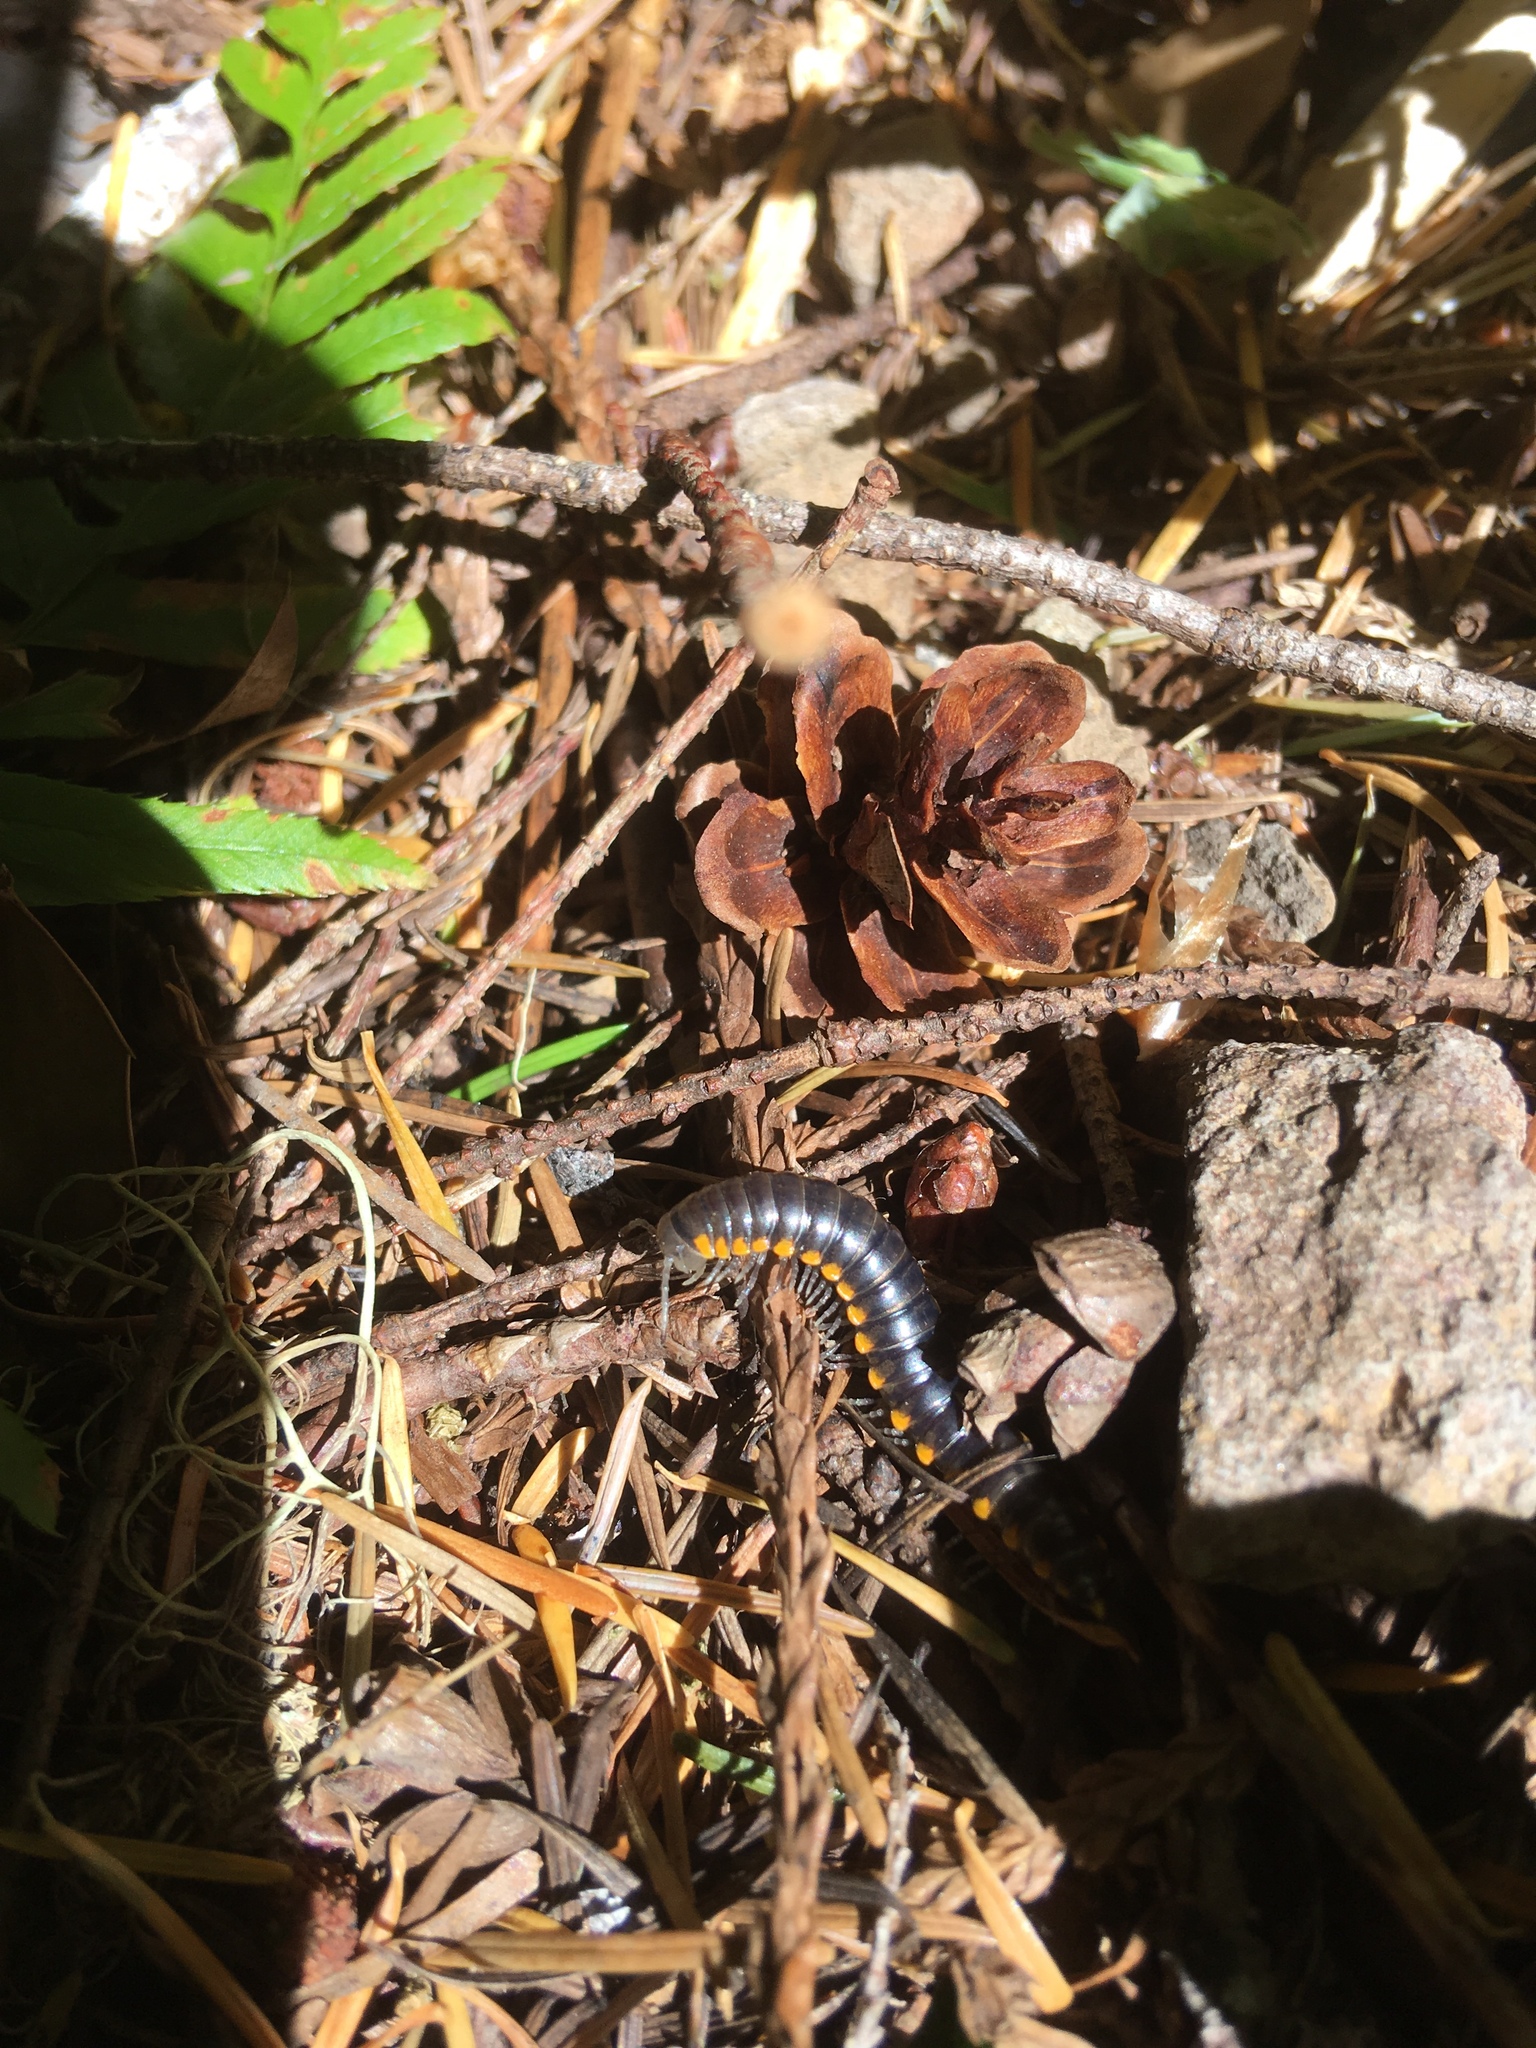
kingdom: Animalia
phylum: Arthropoda
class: Diplopoda
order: Polydesmida
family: Xystodesmidae
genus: Harpaphe
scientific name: Harpaphe haydeniana
